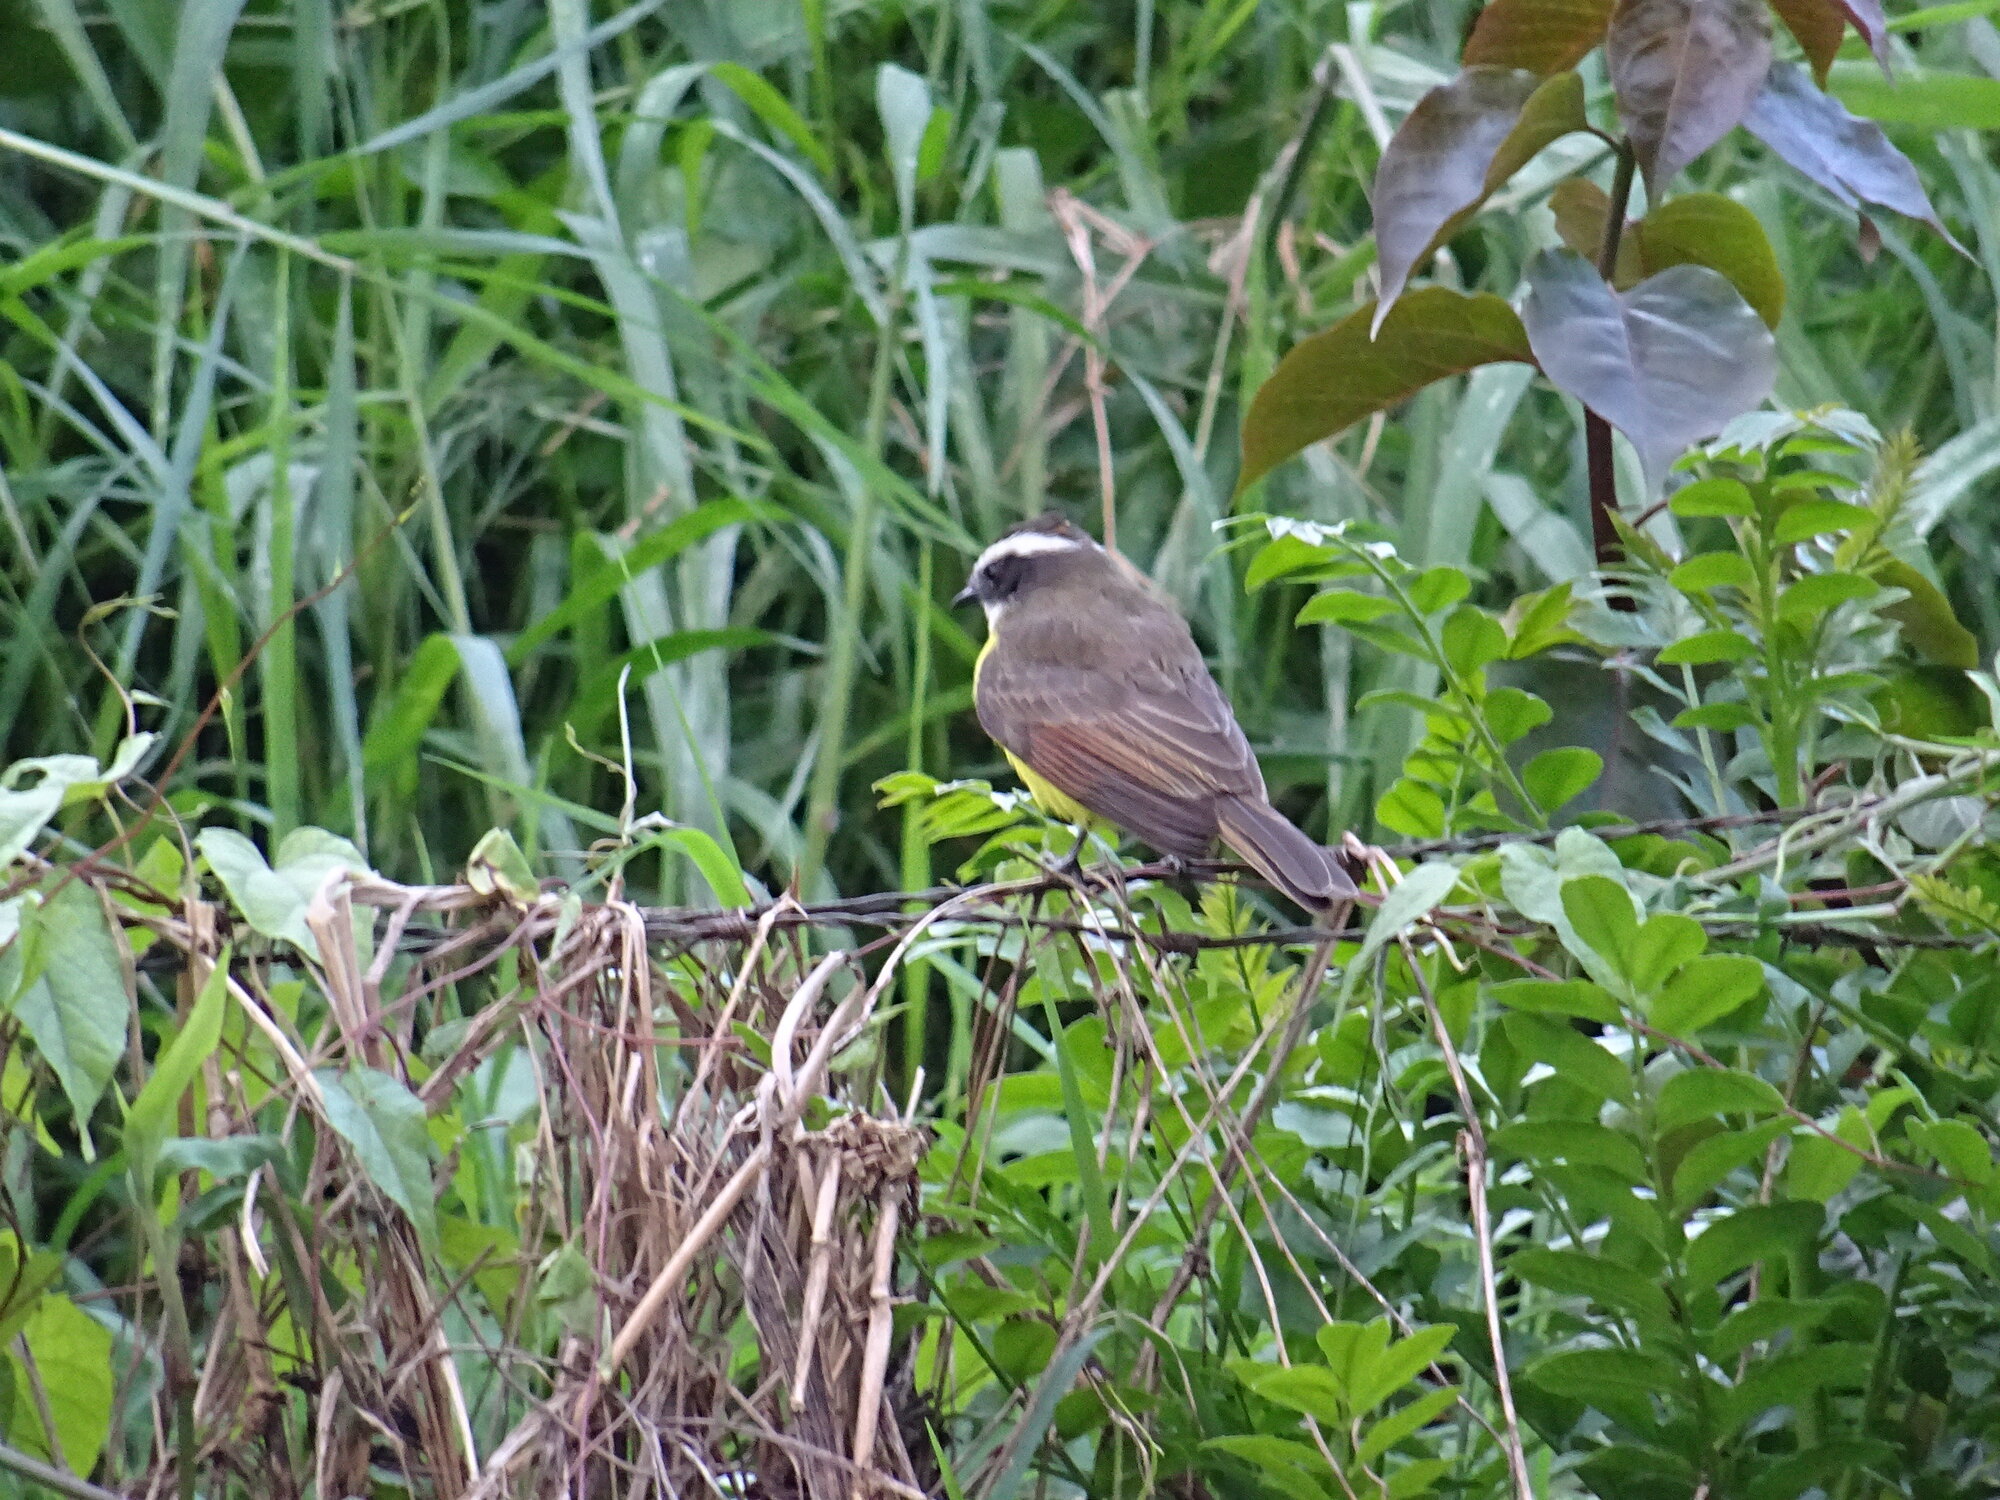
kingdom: Animalia
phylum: Chordata
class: Aves
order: Passeriformes
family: Tyrannidae
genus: Myiozetetes
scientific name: Myiozetetes cayanensis
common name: Rusty-margined flycatcher
